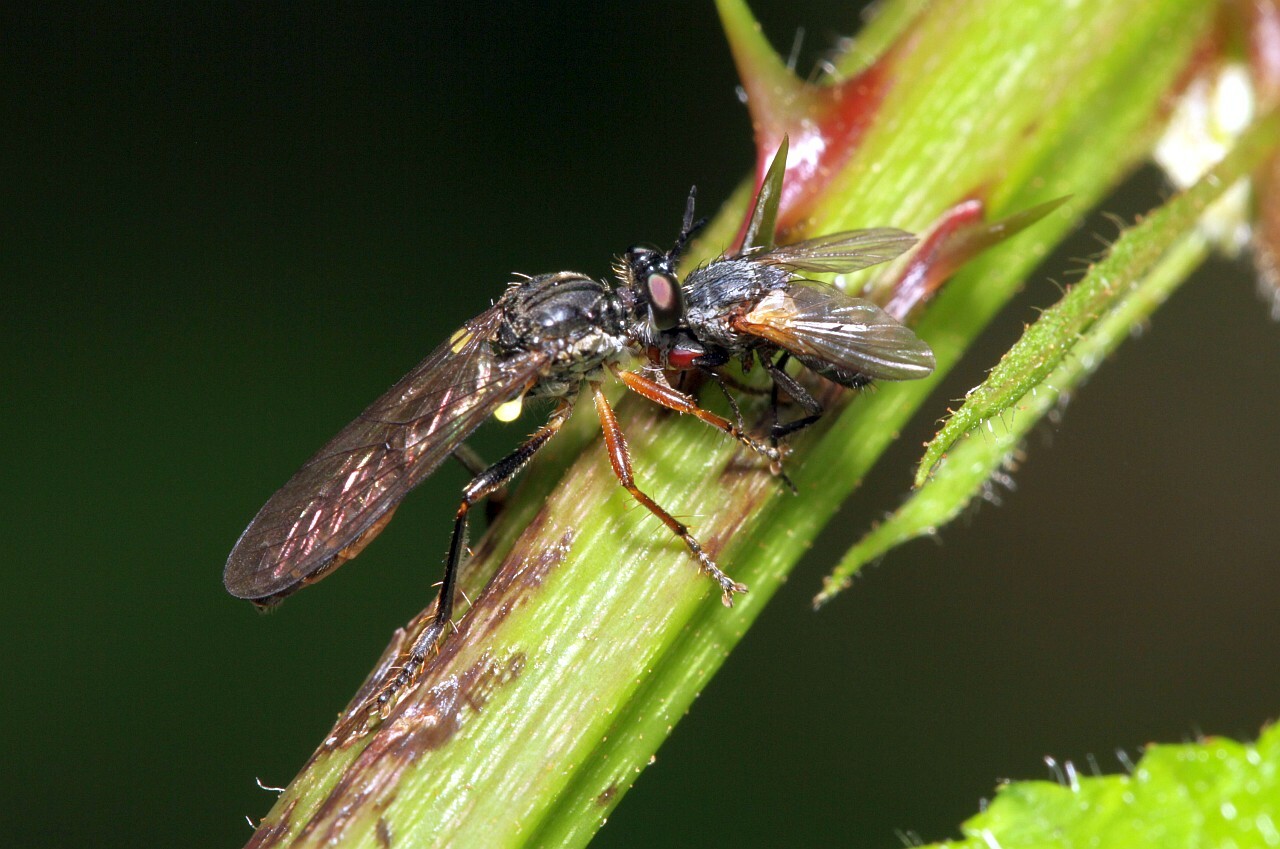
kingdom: Animalia
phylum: Arthropoda
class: Insecta
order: Diptera
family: Asilidae
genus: Dioctria
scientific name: Dioctria hyalipennis
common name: Stripe-legged robberfly
